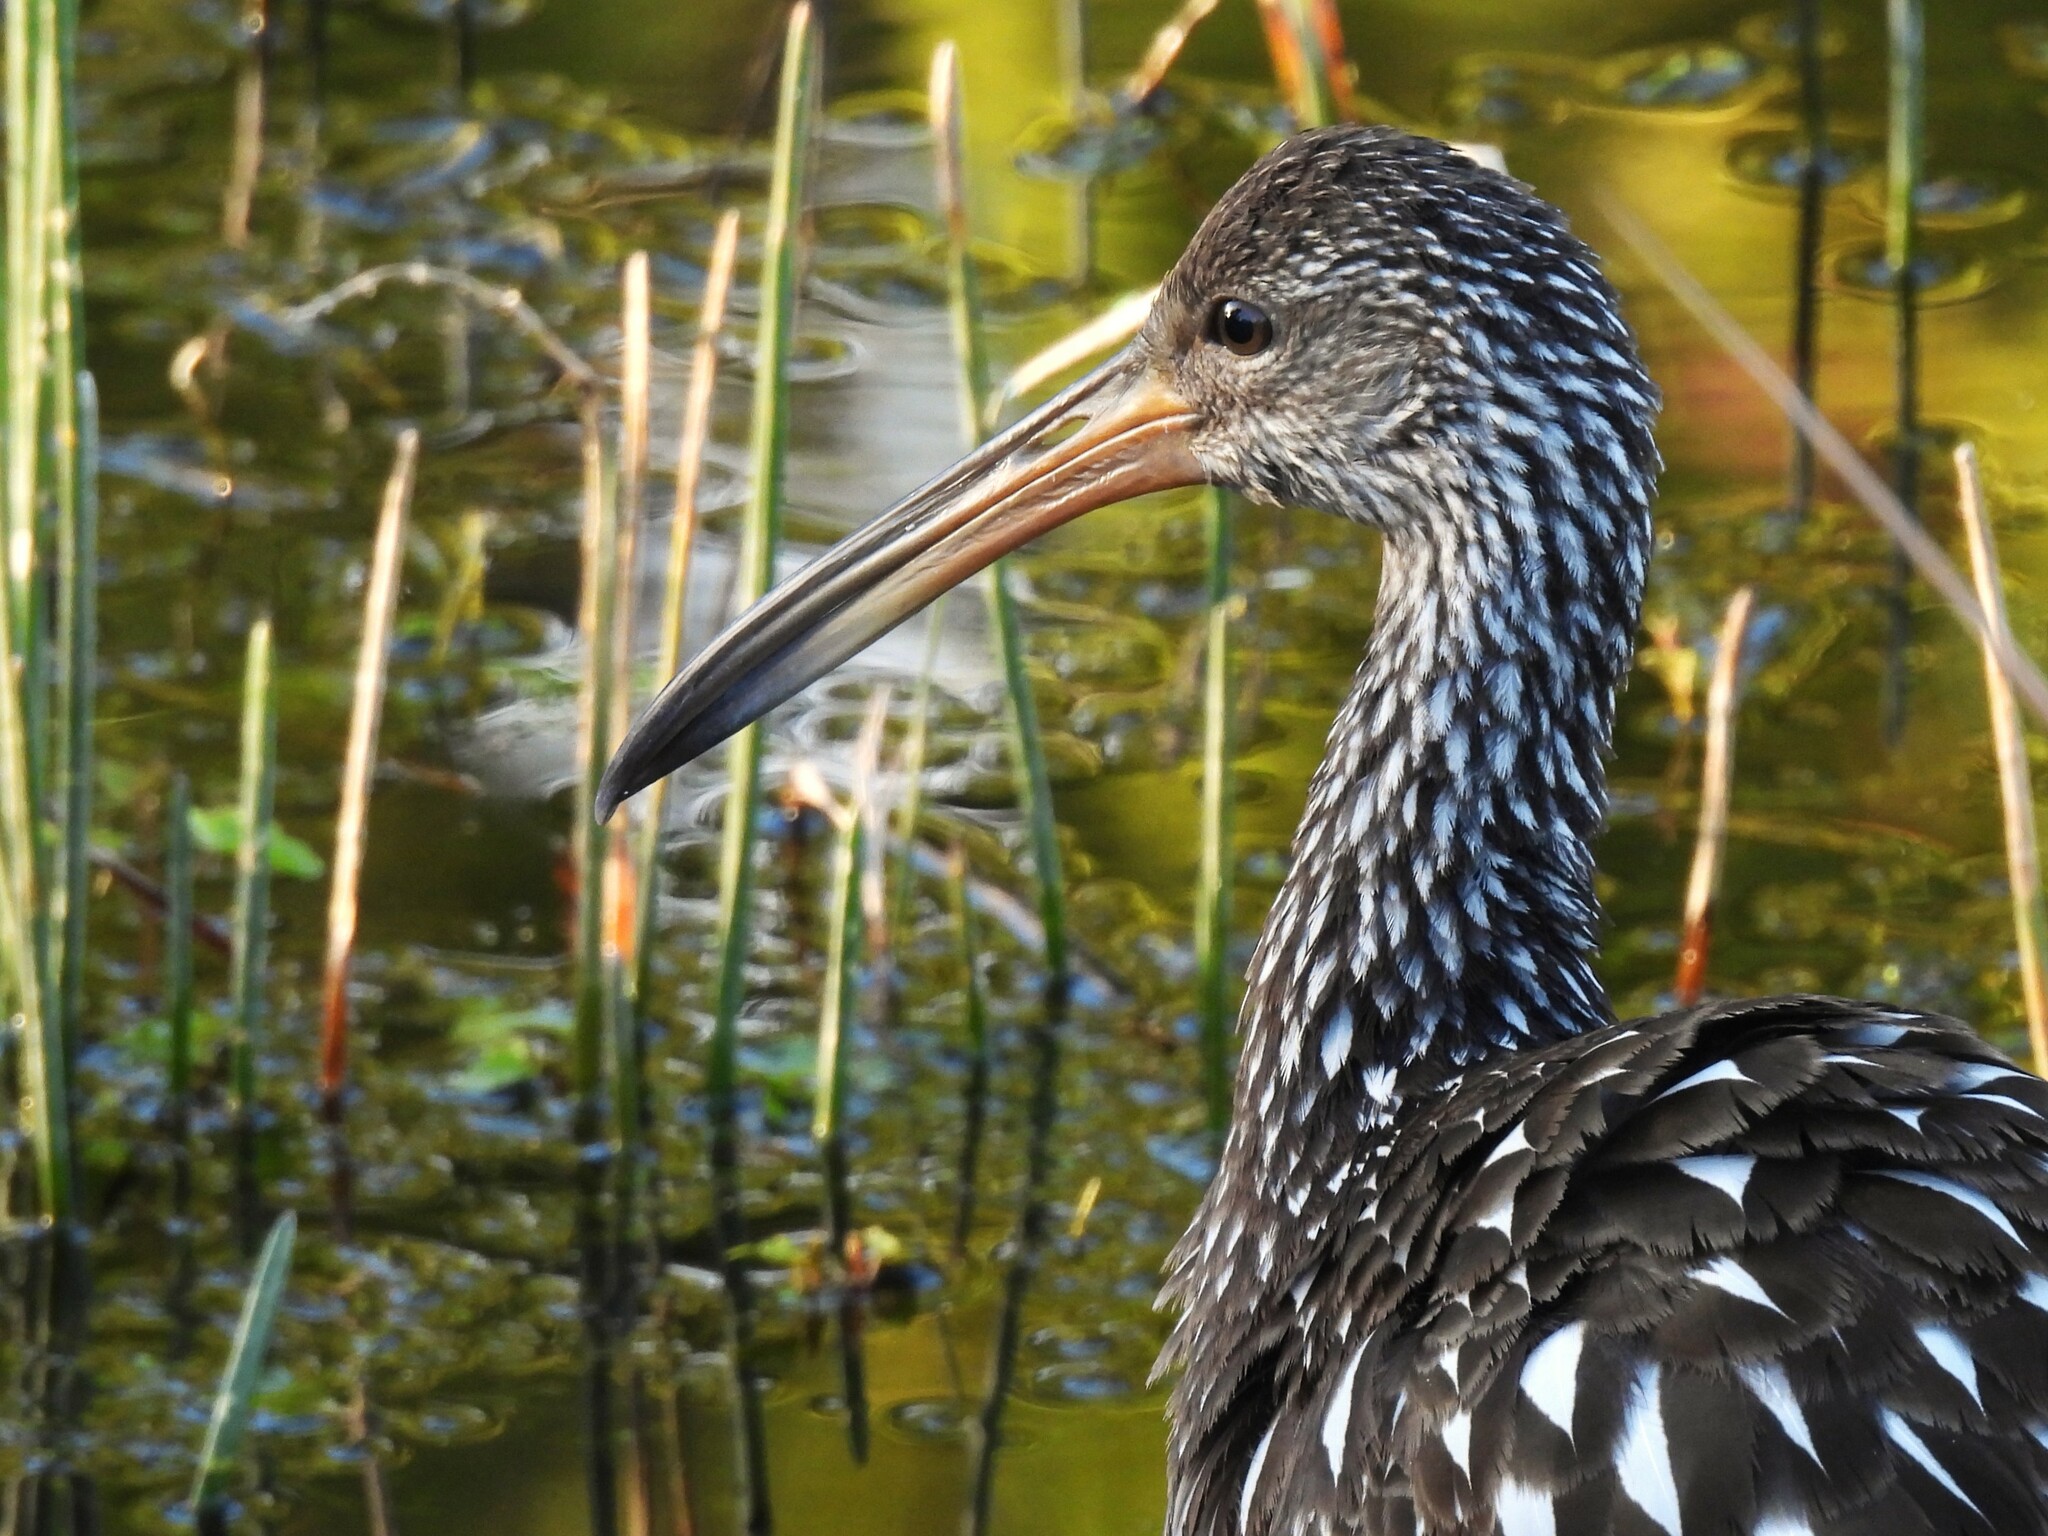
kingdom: Animalia
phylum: Chordata
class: Aves
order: Gruiformes
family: Aramidae
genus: Aramus
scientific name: Aramus guarauna
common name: Limpkin
